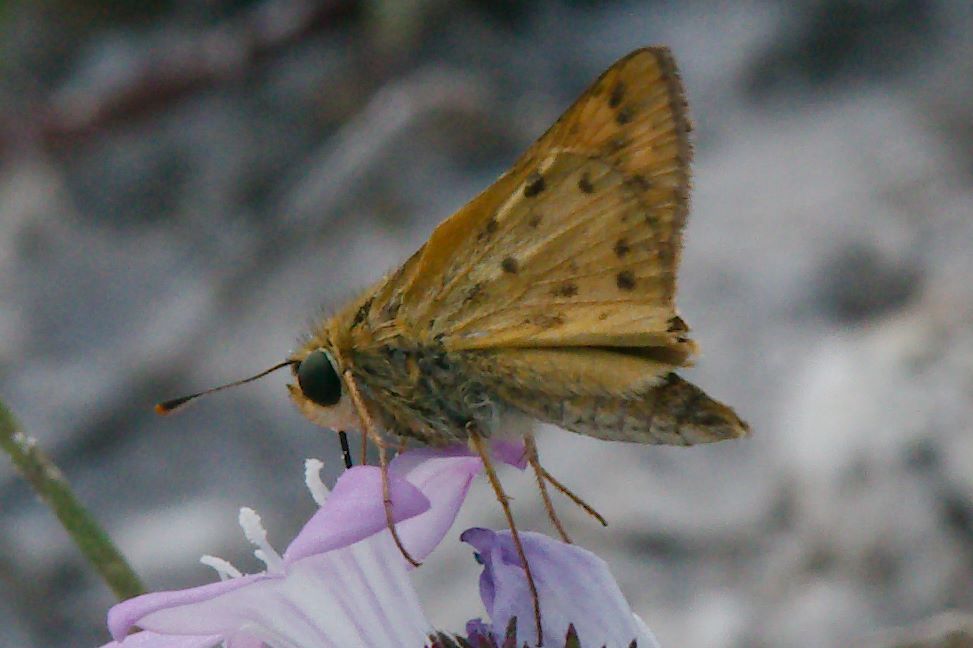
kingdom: Animalia
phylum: Arthropoda
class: Insecta
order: Lepidoptera
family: Hesperiidae
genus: Hylephila
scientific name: Hylephila phyleus
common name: Fiery skipper
